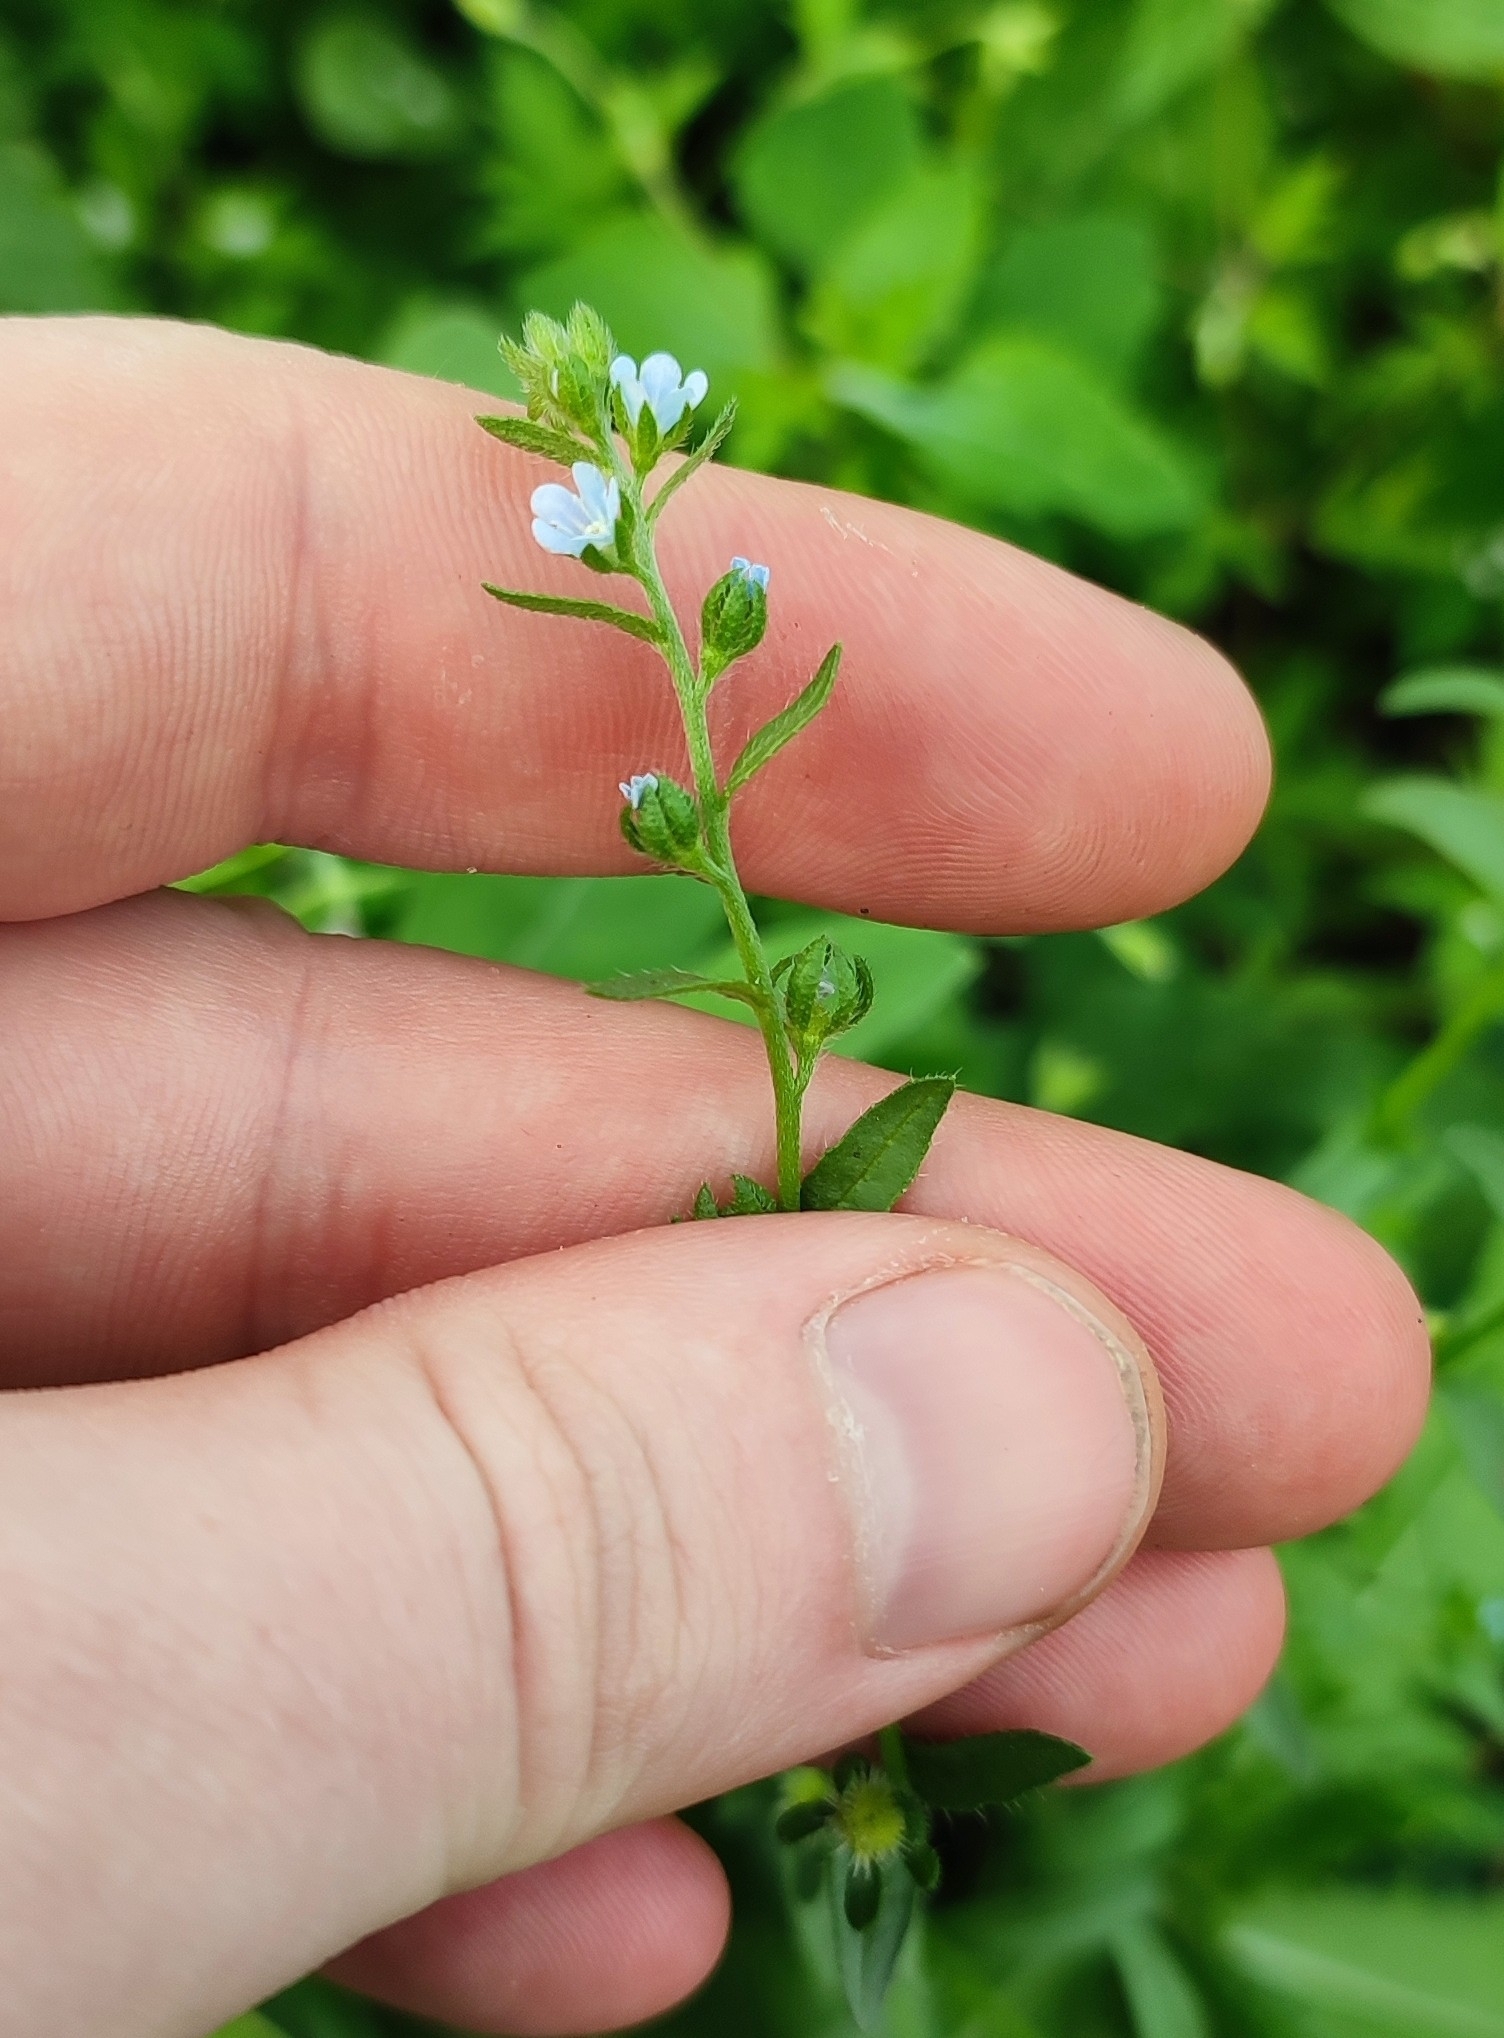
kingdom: Plantae
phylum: Tracheophyta
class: Magnoliopsida
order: Boraginales
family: Boraginaceae
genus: Lappula
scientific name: Lappula squarrosa
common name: European stickseed
